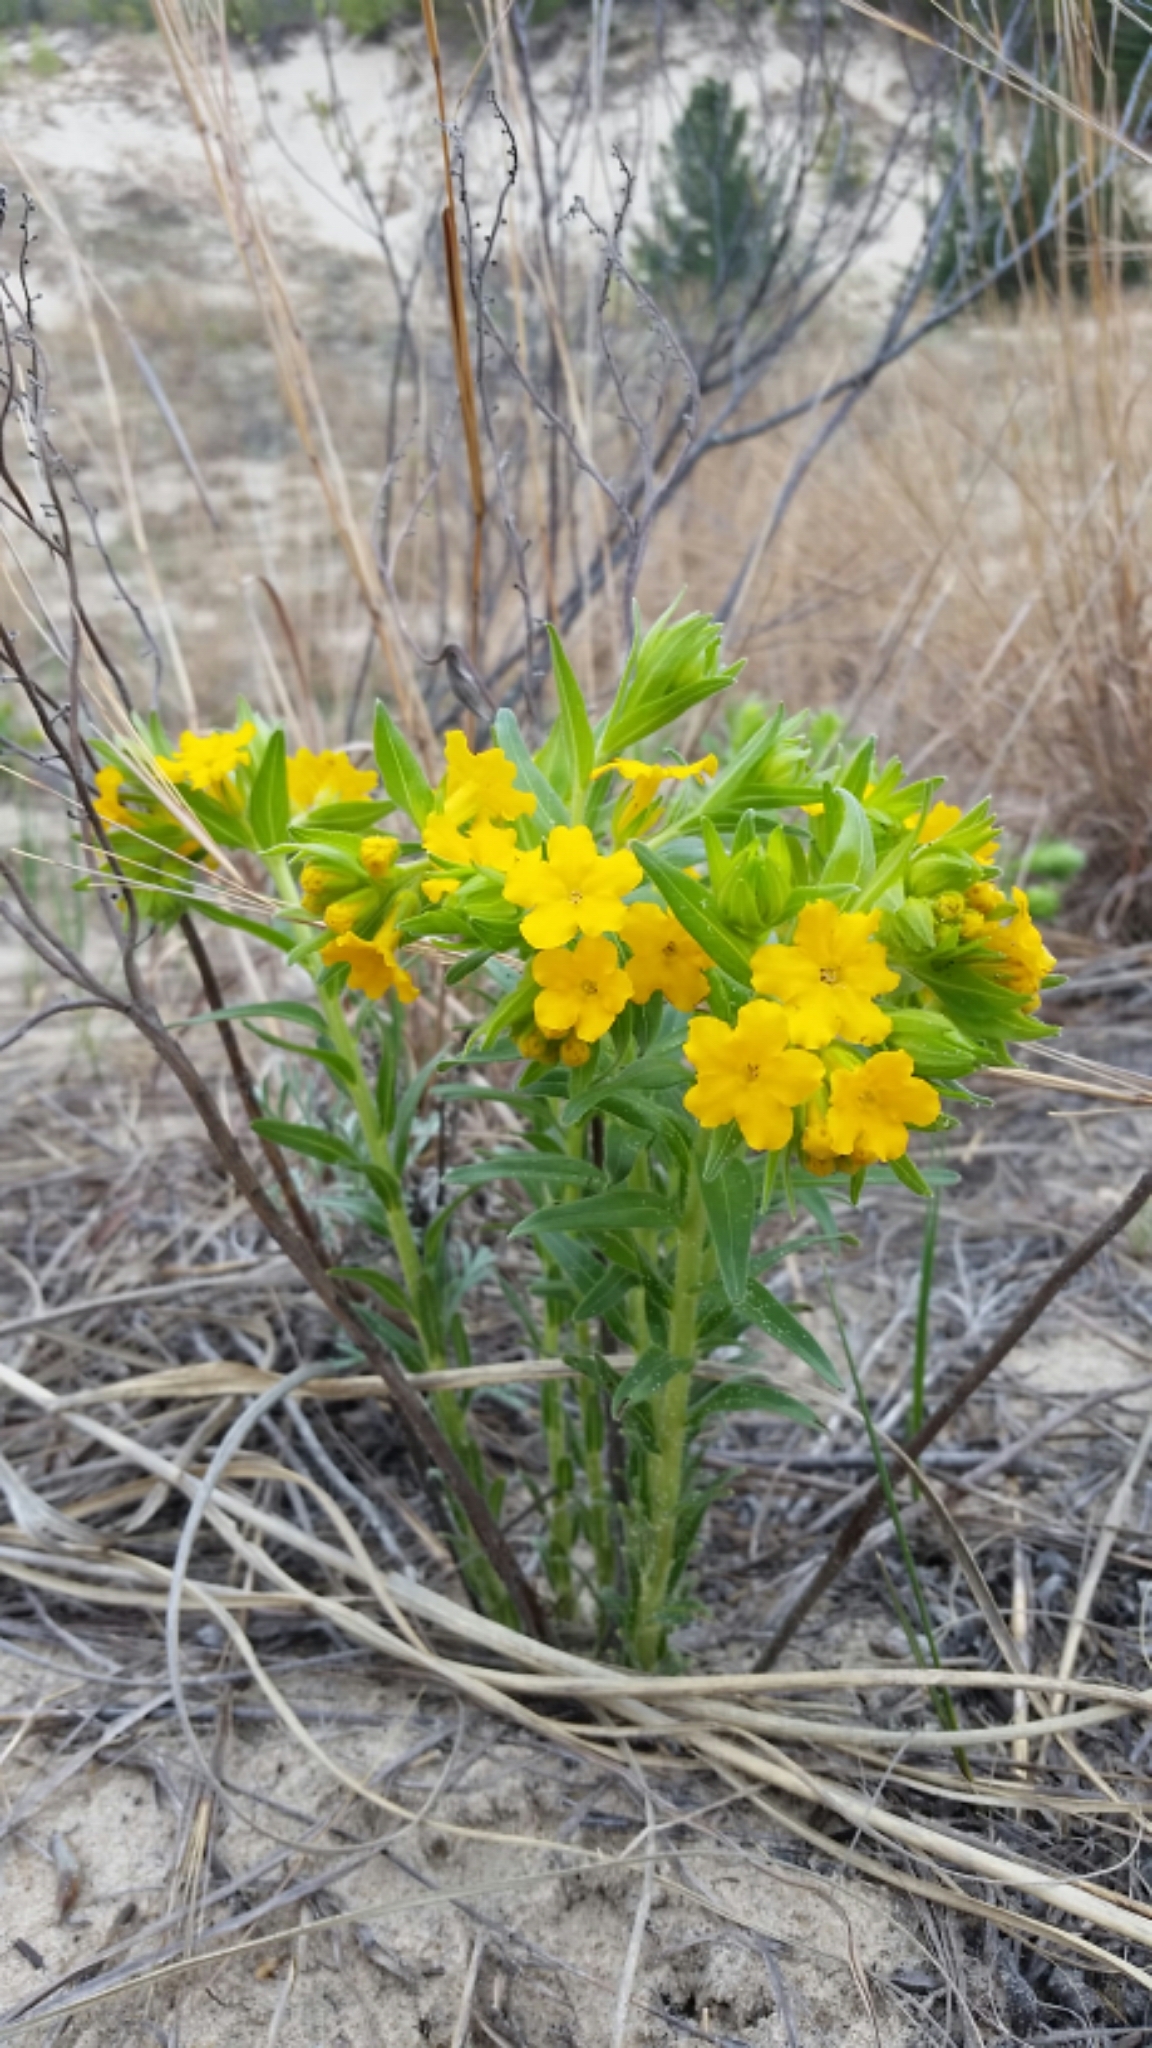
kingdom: Plantae
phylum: Tracheophyta
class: Magnoliopsida
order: Boraginales
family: Boraginaceae
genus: Lithospermum
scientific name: Lithospermum caroliniense
